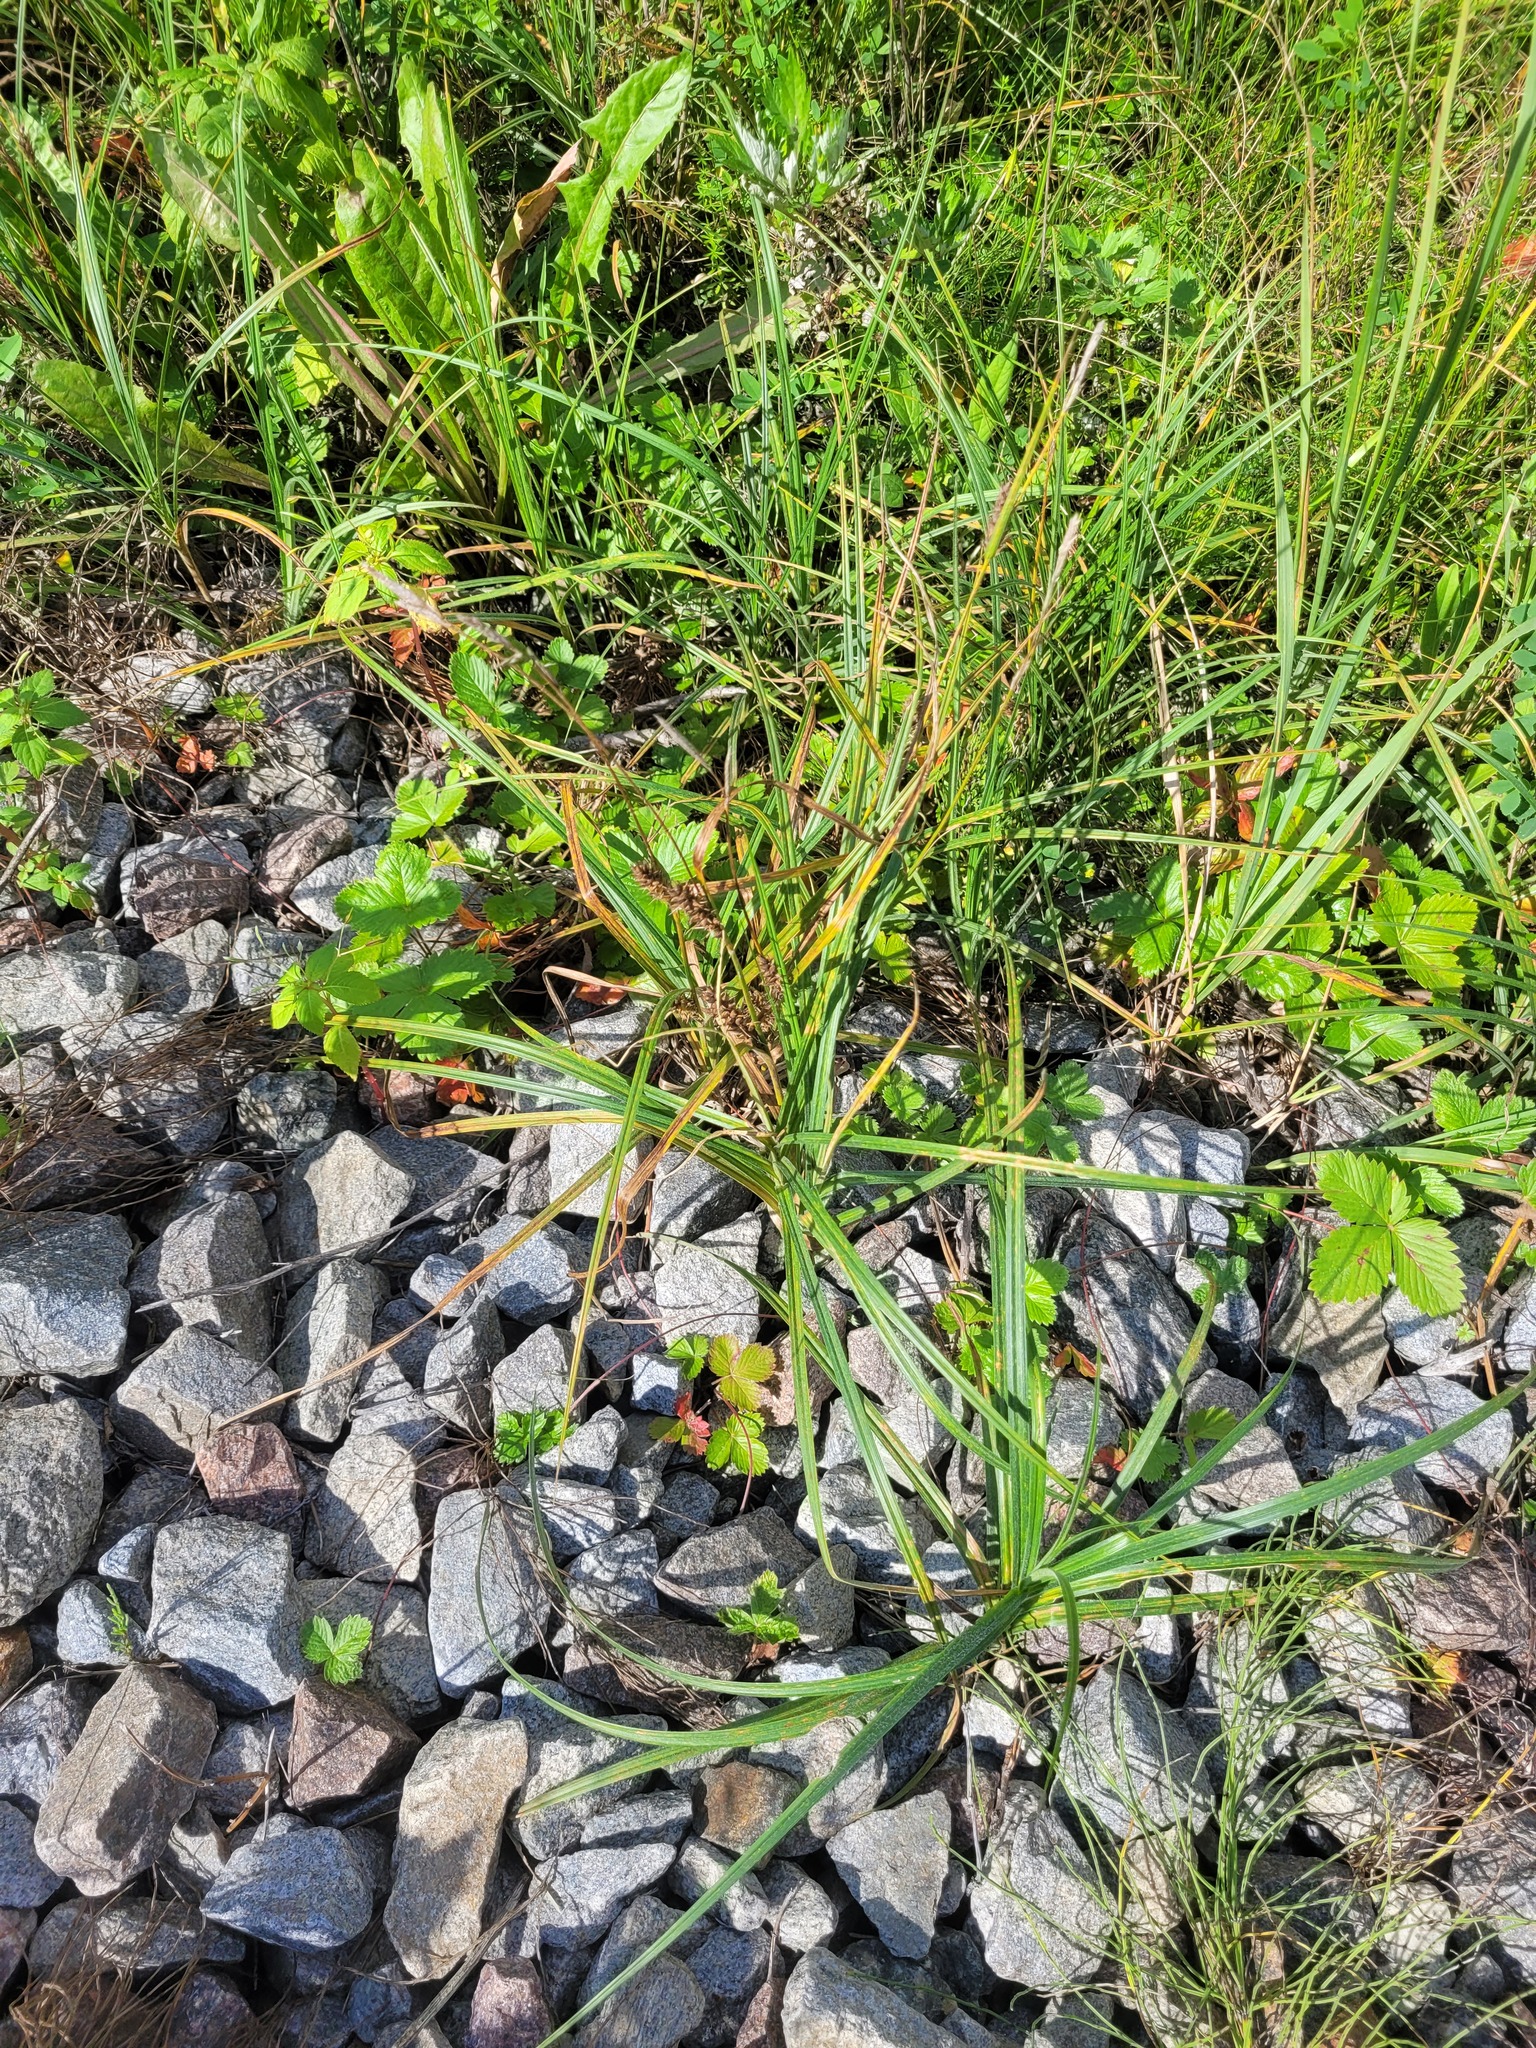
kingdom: Plantae
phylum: Tracheophyta
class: Liliopsida
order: Poales
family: Cyperaceae
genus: Carex
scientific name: Carex hirta
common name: Hairy sedge
